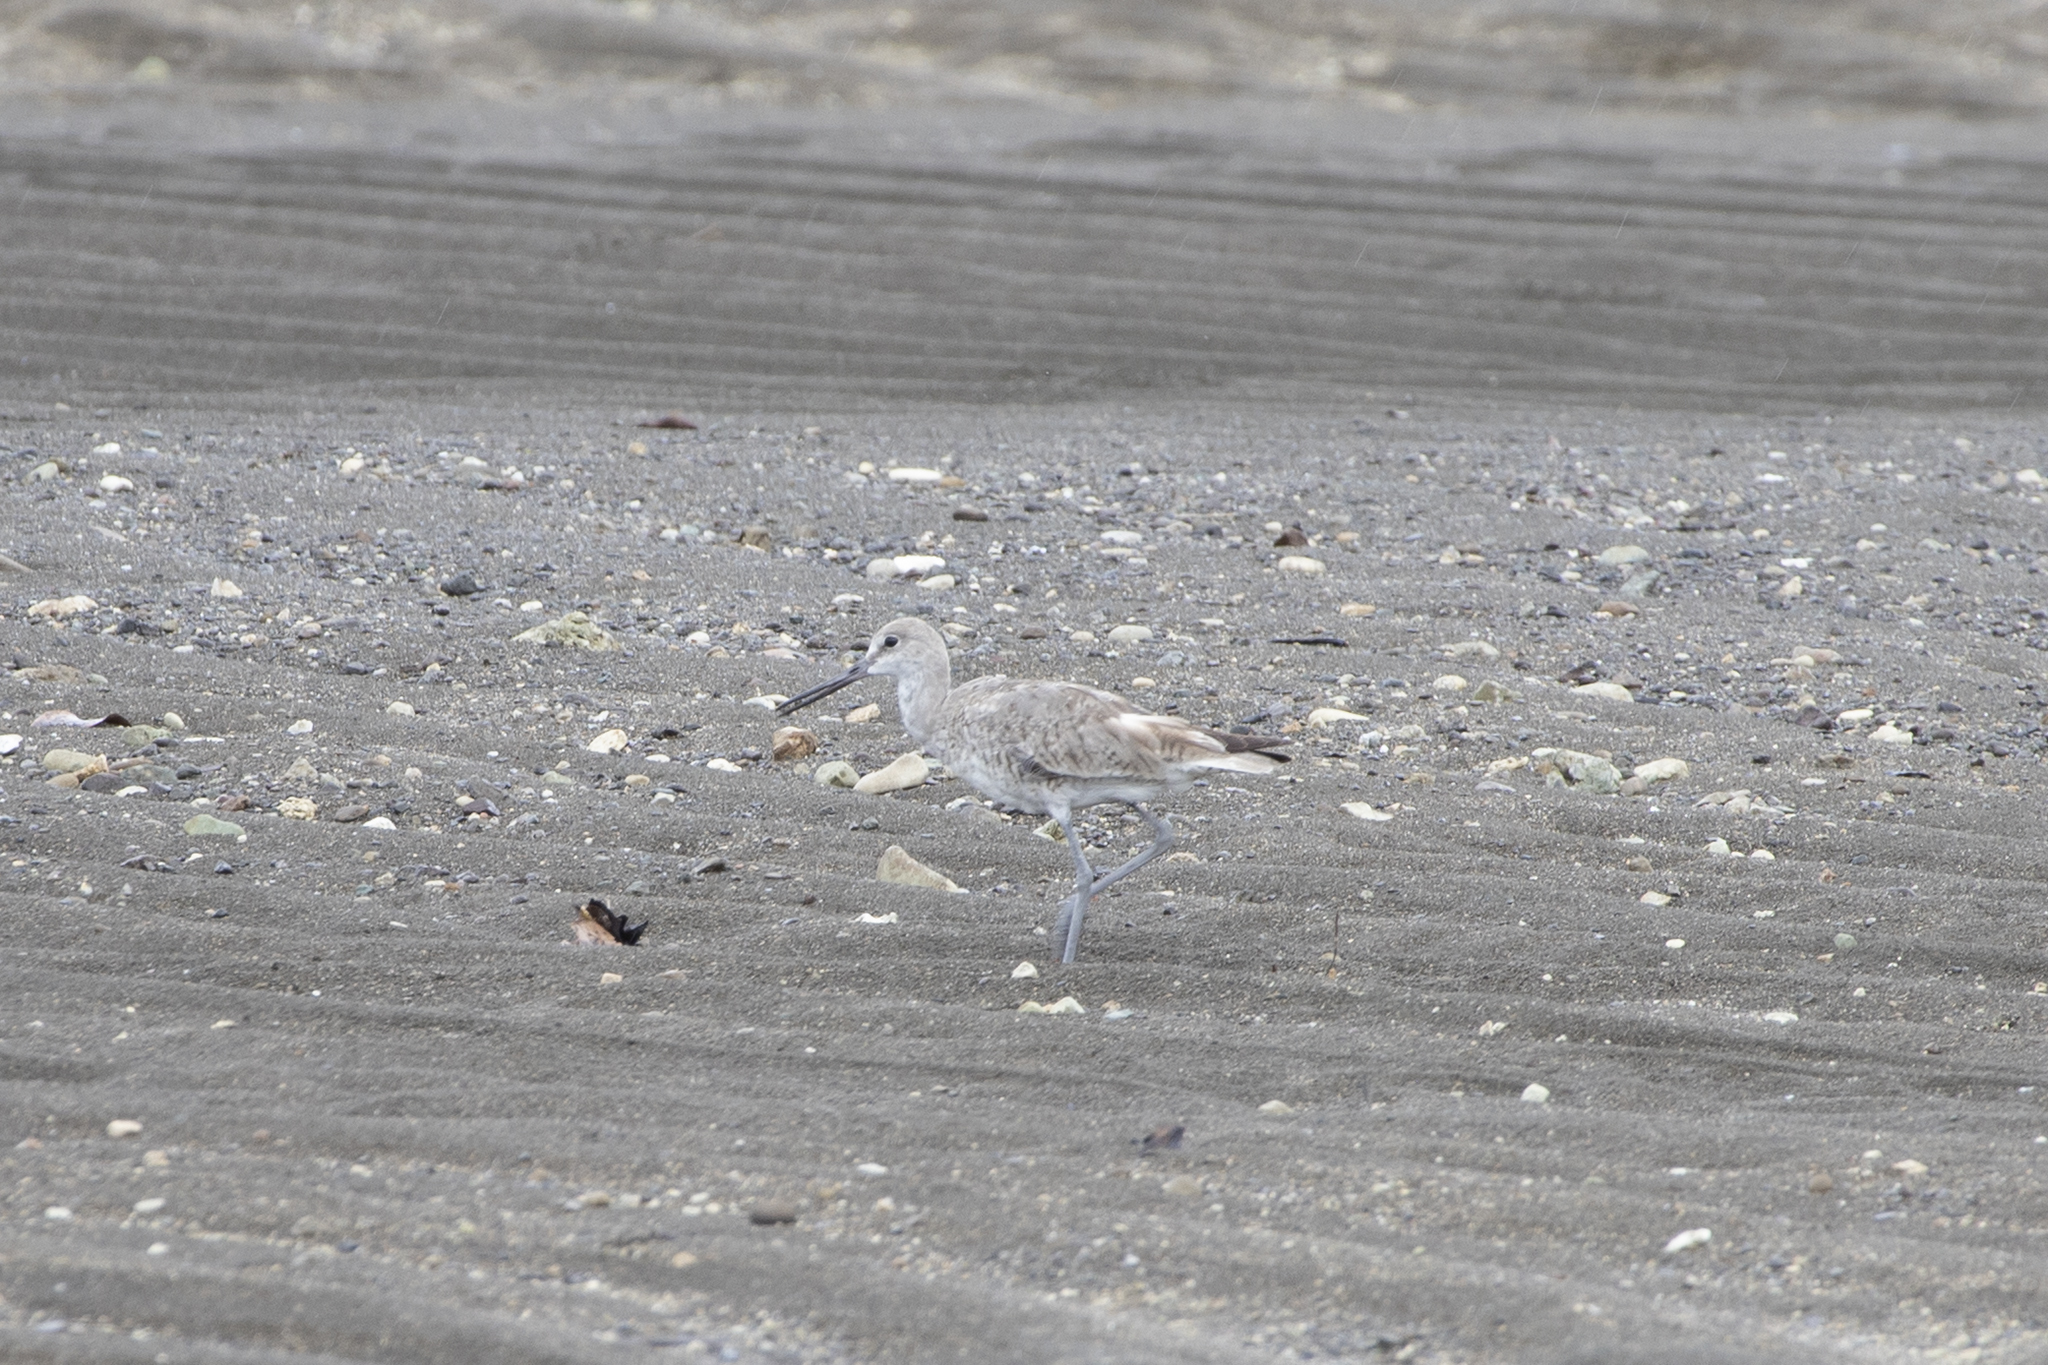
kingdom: Animalia
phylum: Chordata
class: Aves
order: Charadriiformes
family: Scolopacidae
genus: Tringa
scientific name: Tringa semipalmata
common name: Willet
